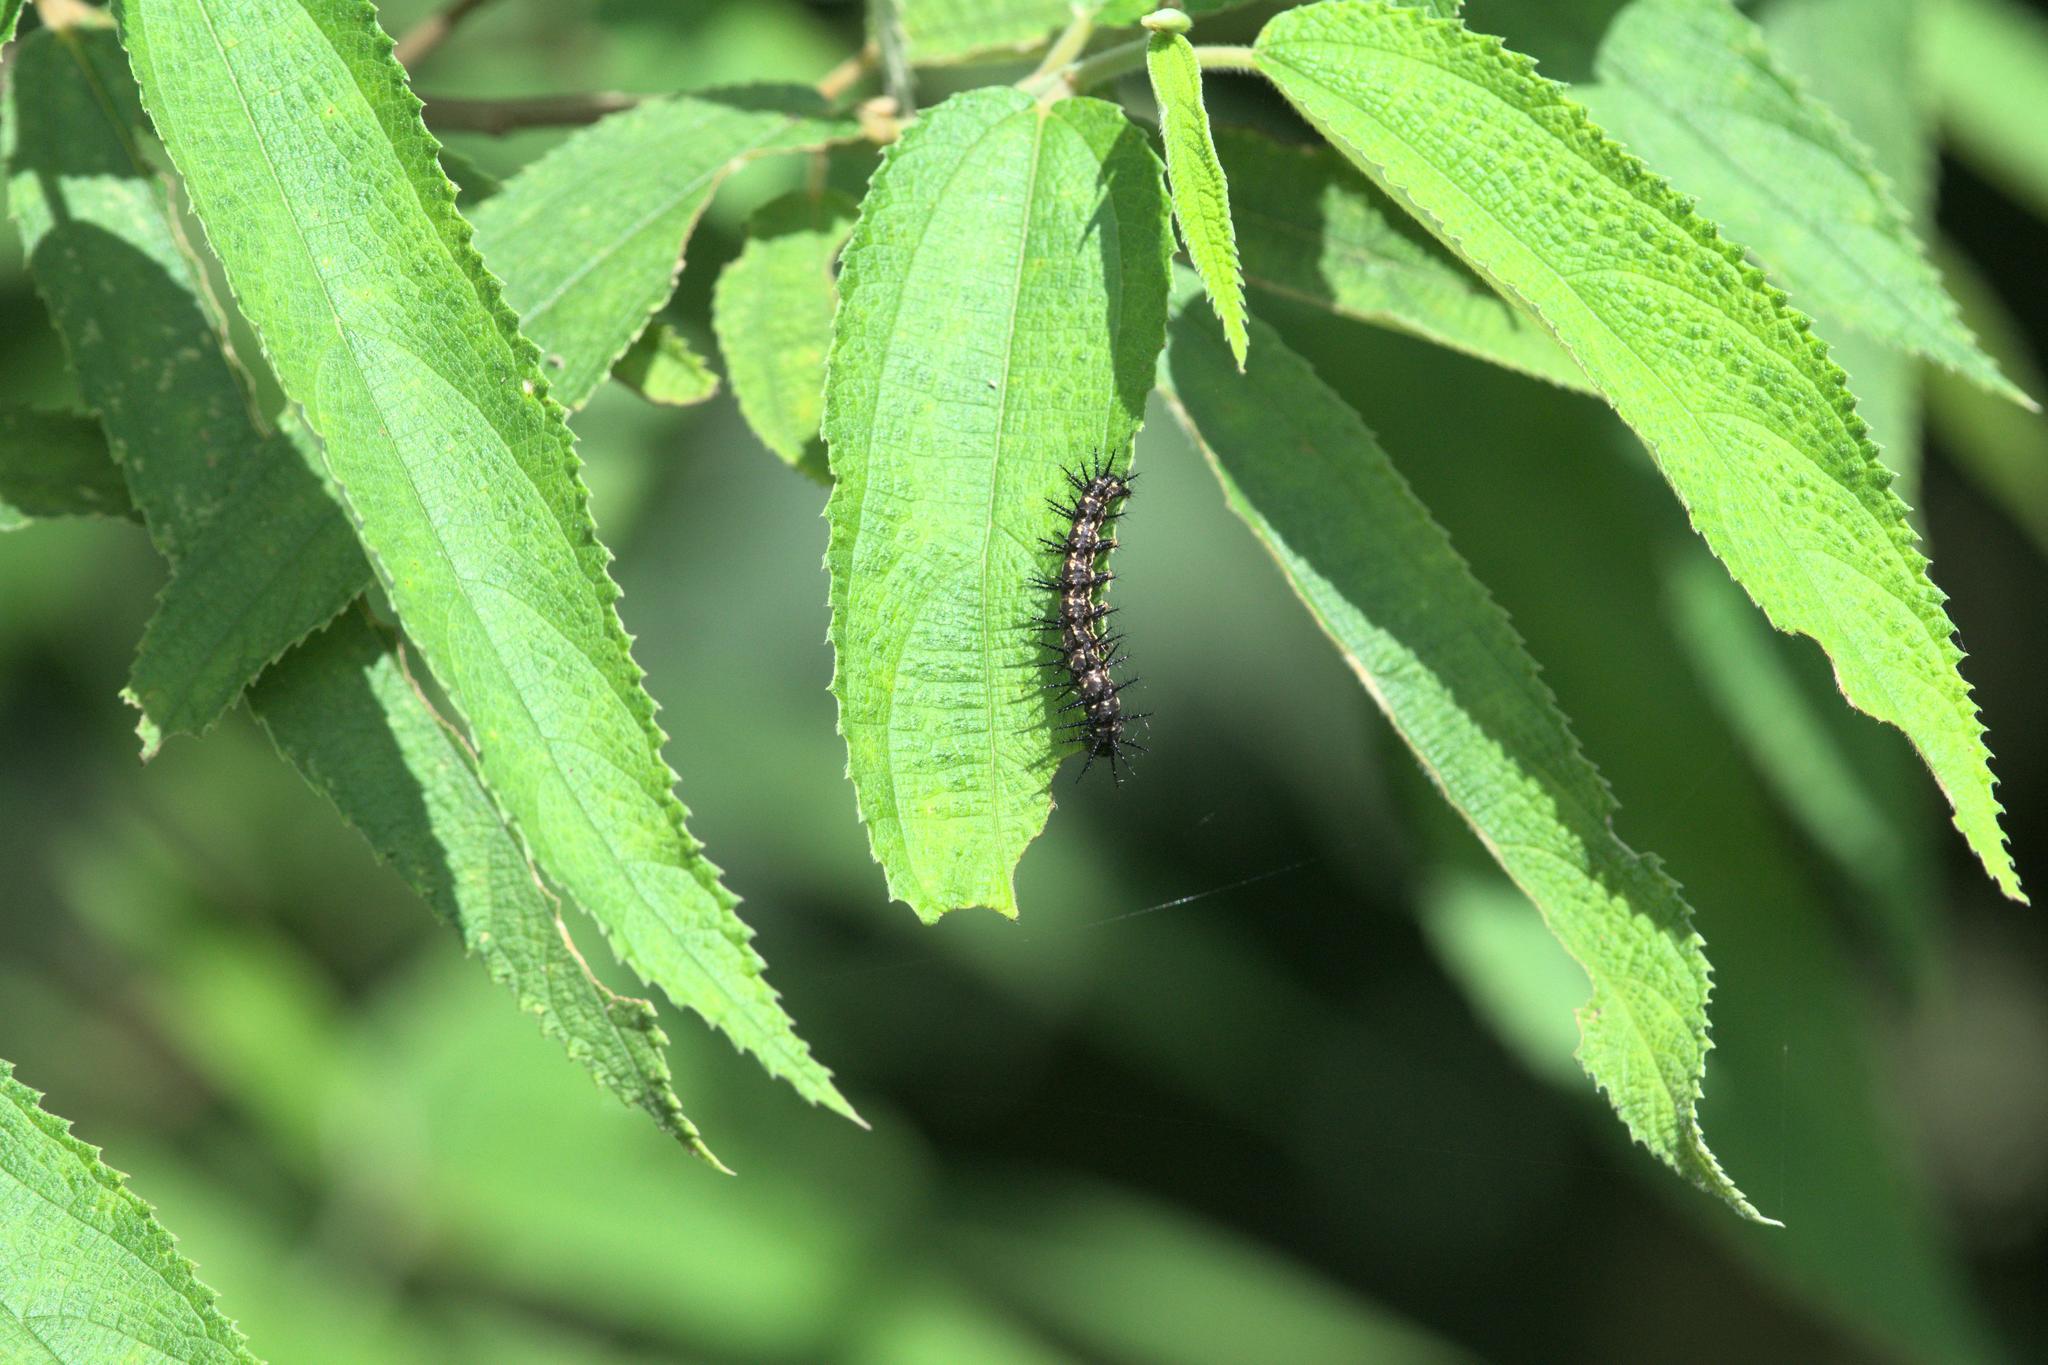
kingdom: Animalia
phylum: Arthropoda
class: Insecta
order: Lepidoptera
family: Nymphalidae
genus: Acraea
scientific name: Acraea Telchinia issoria
